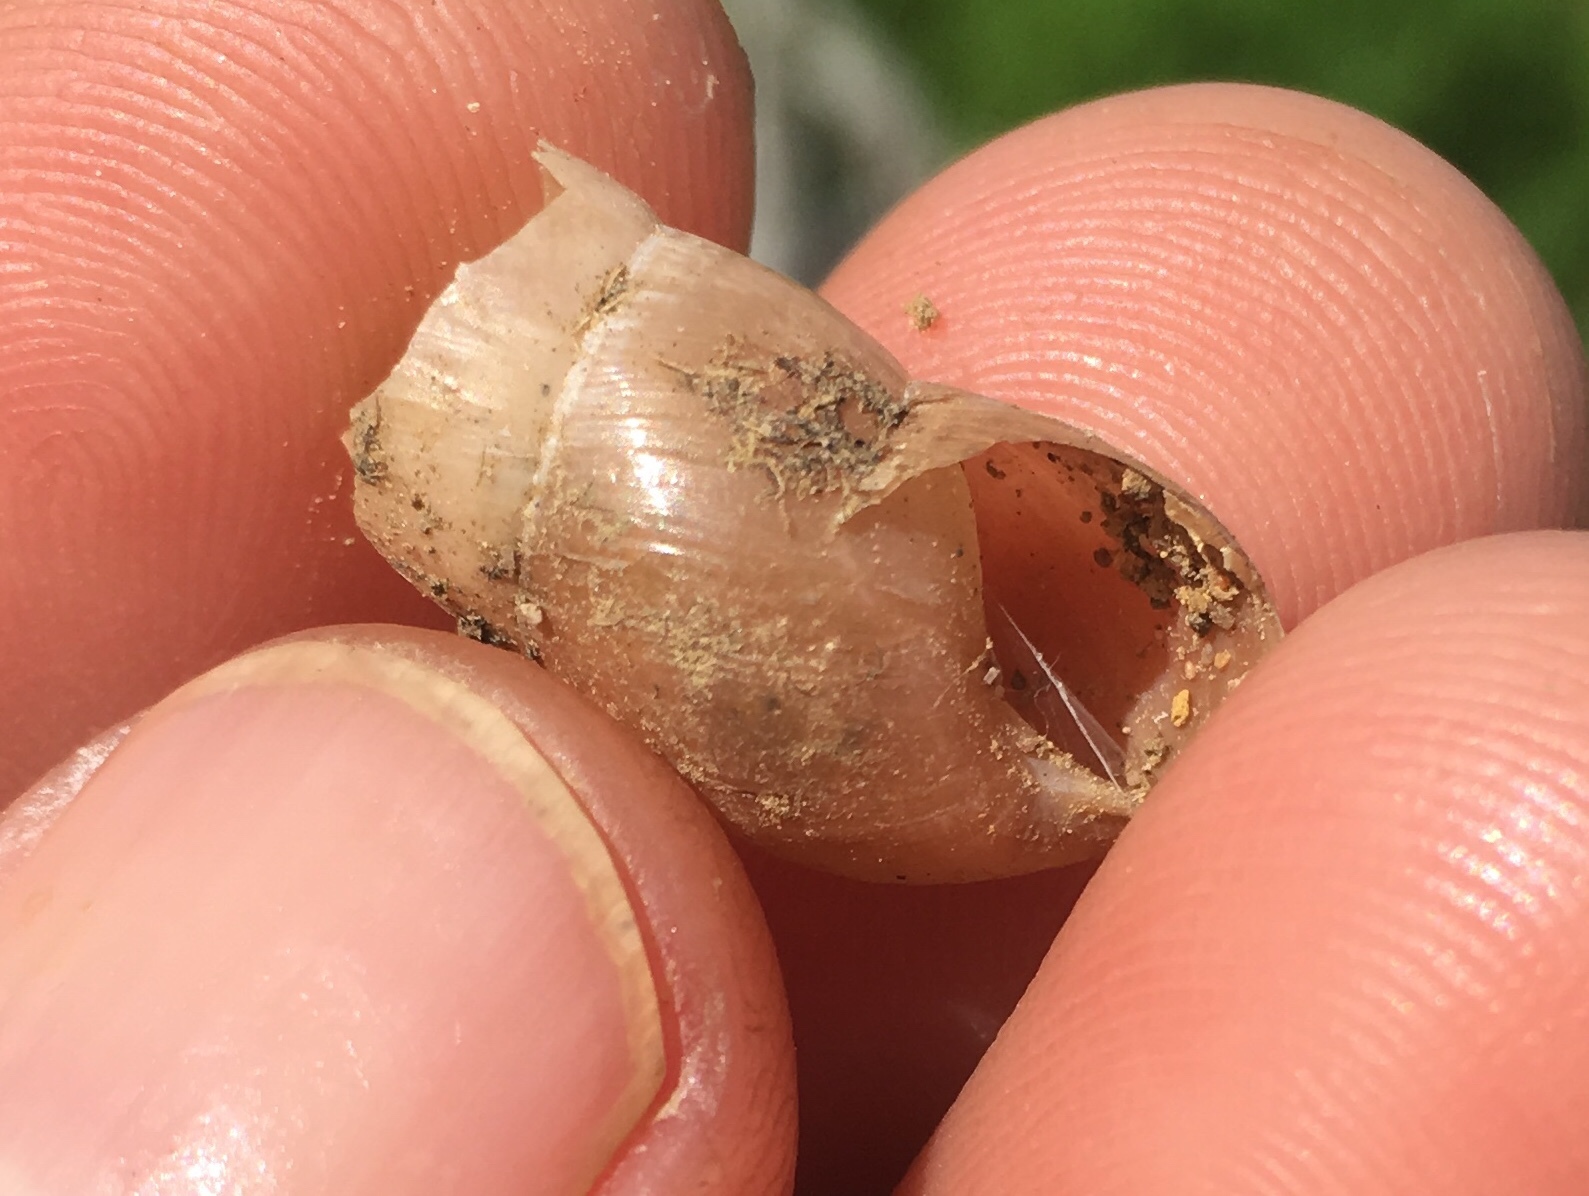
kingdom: Animalia
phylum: Mollusca
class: Gastropoda
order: Stylommatophora
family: Achatinidae
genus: Rumina
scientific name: Rumina decollata
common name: Decollate snail
